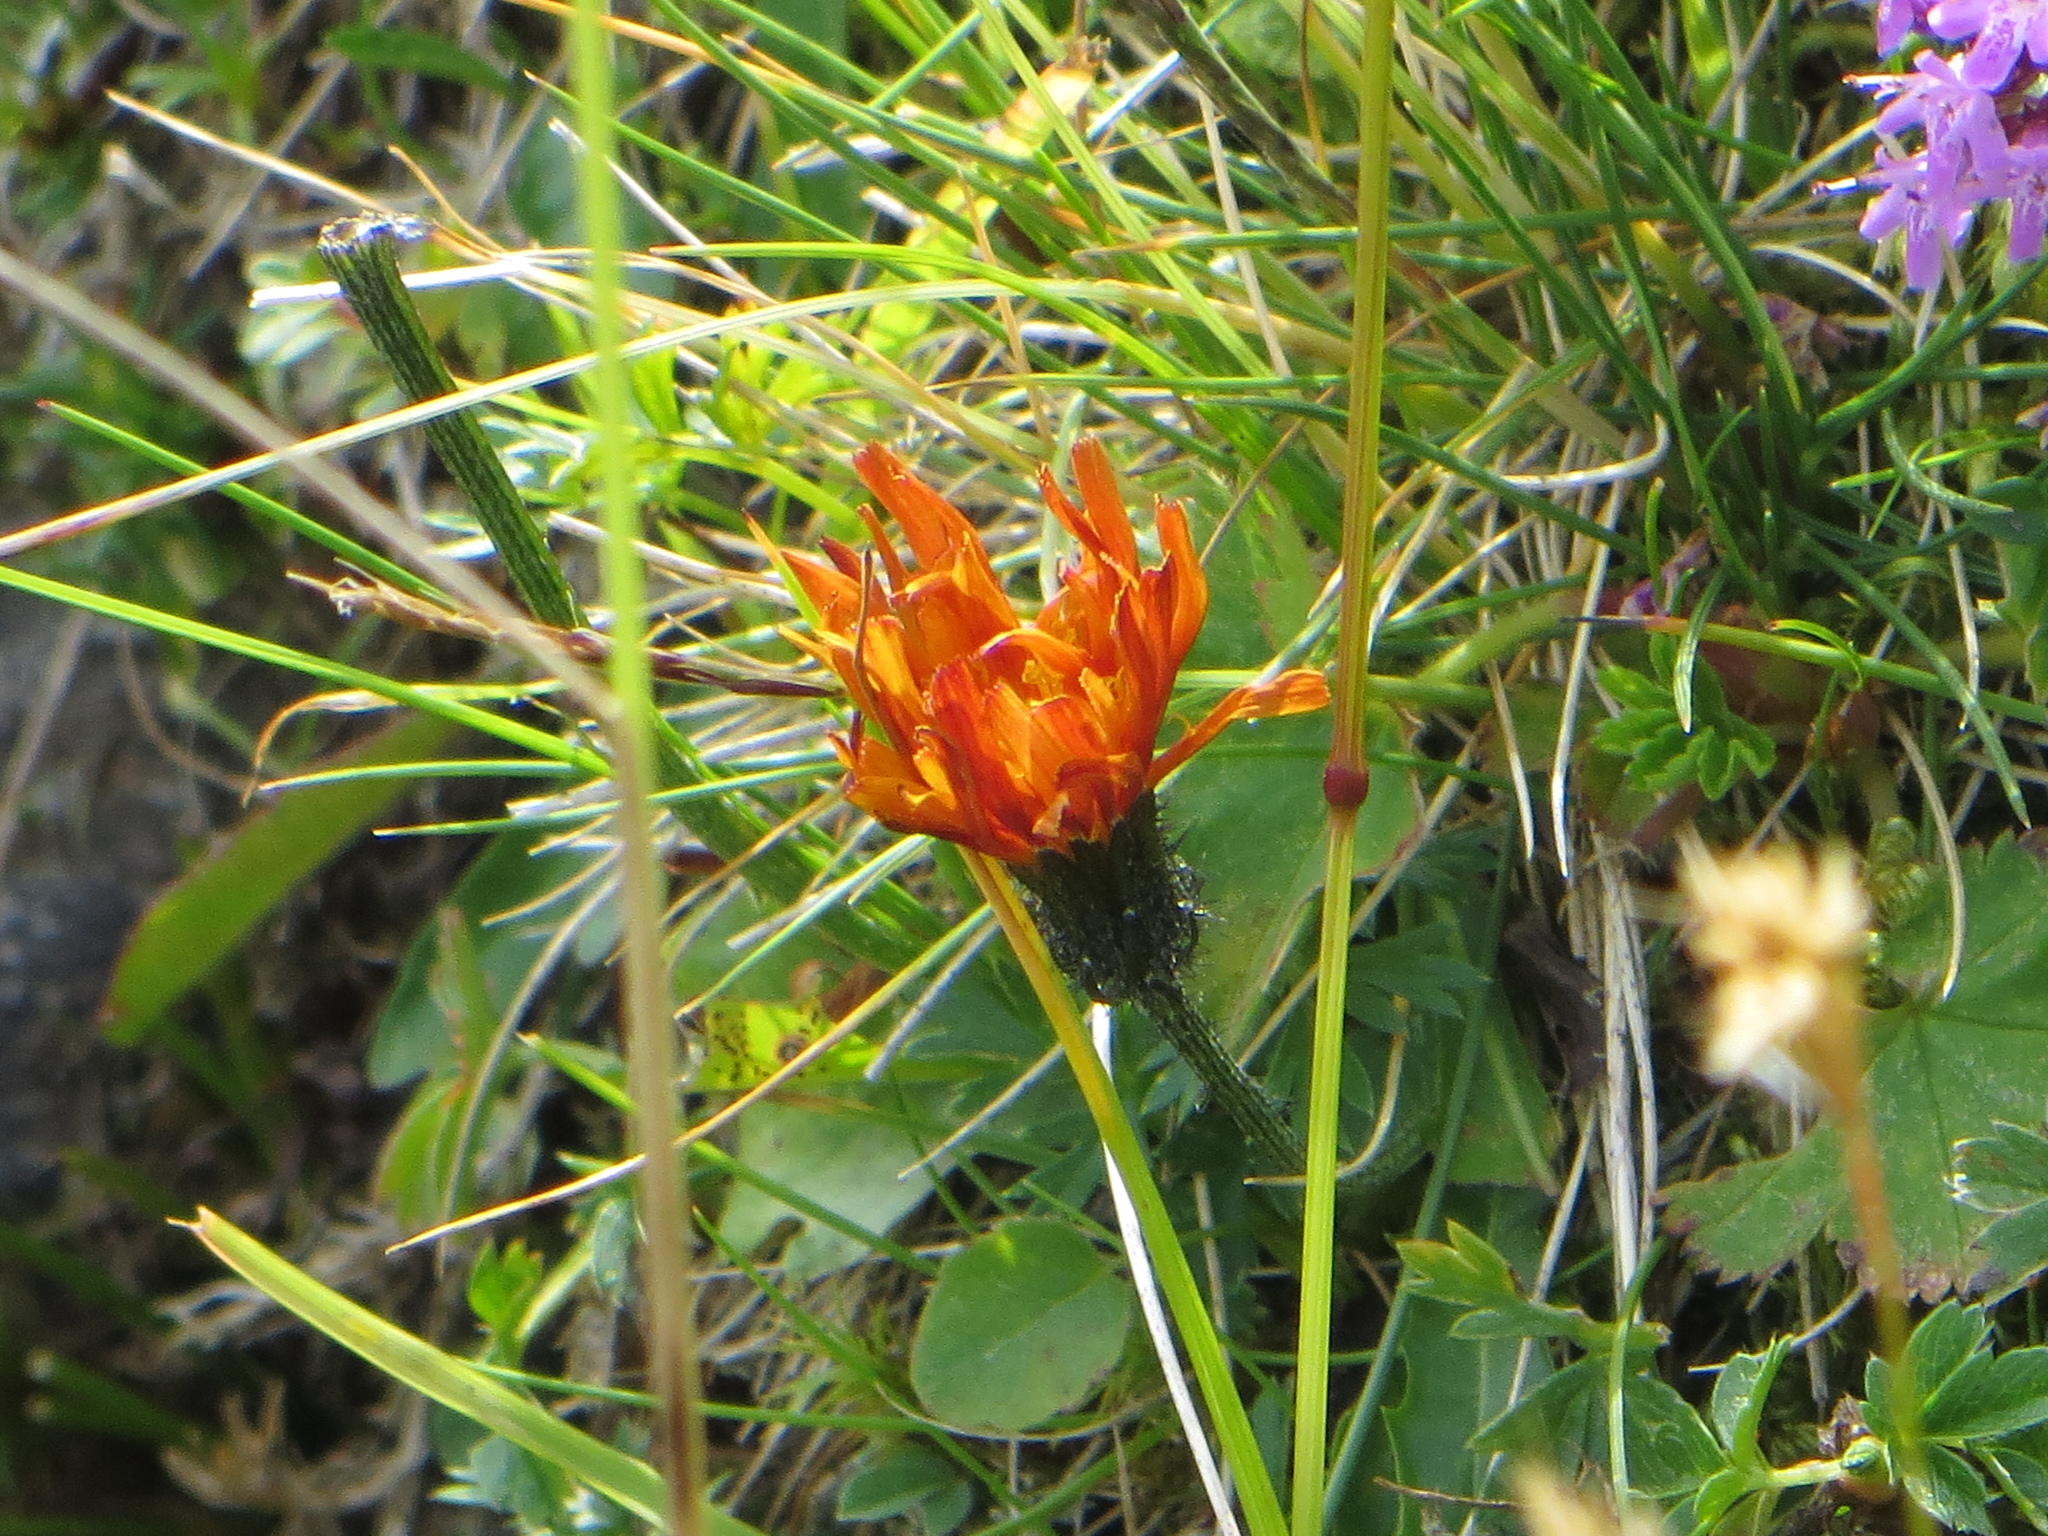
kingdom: Plantae
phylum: Tracheophyta
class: Magnoliopsida
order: Asterales
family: Asteraceae
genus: Crepis
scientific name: Crepis aurea
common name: Golden hawk's-beard
